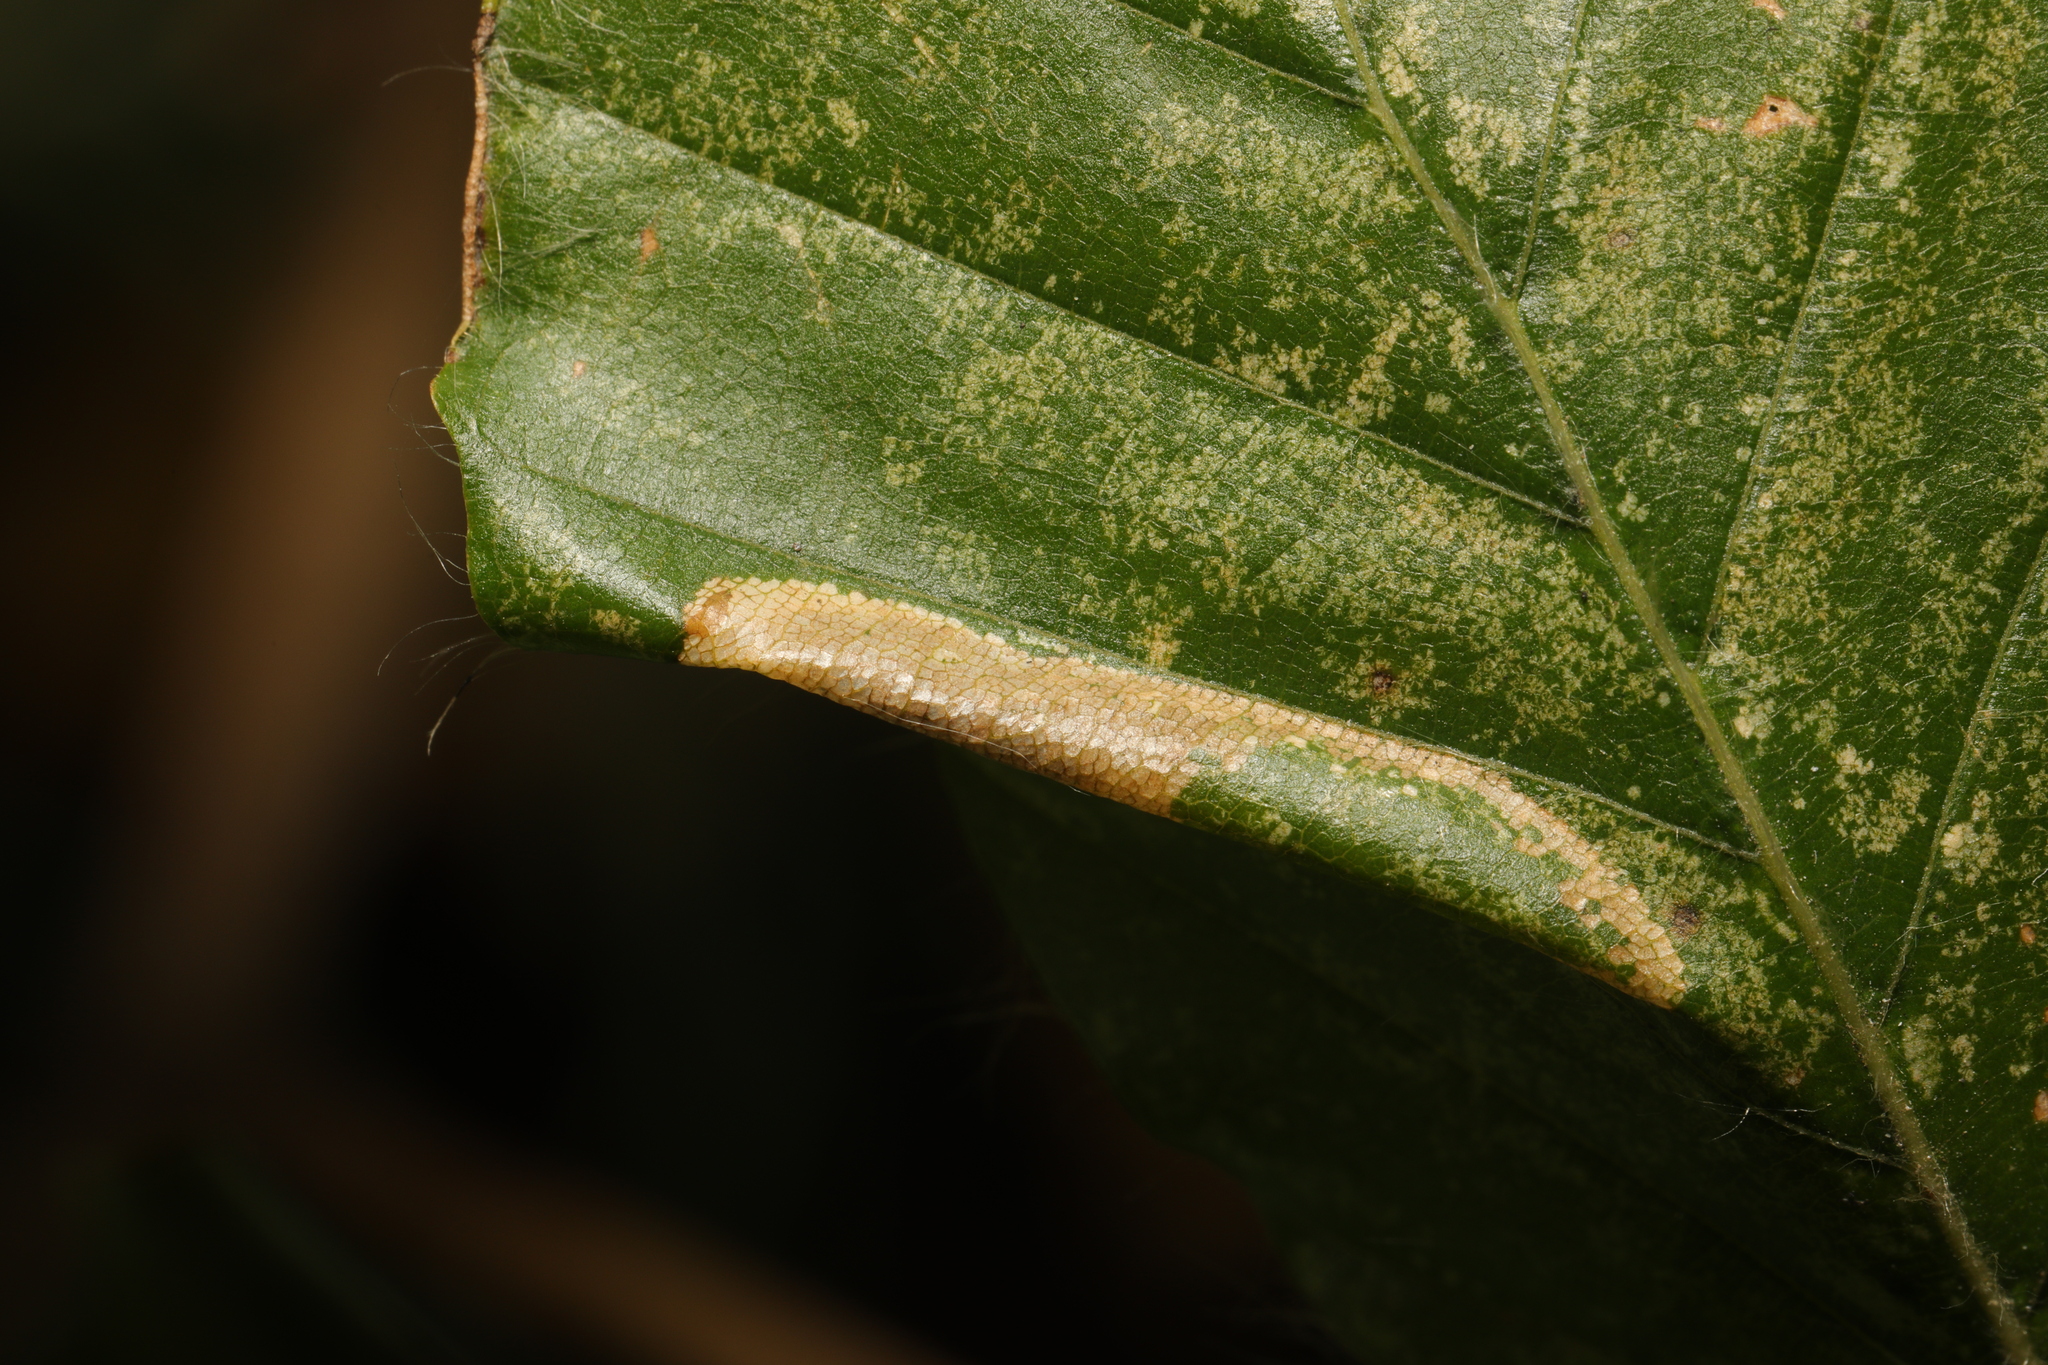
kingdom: Animalia
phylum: Arthropoda
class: Insecta
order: Lepidoptera
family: Gracillariidae
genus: Phyllonorycter
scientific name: Phyllonorycter maestingella
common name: Beech midget
